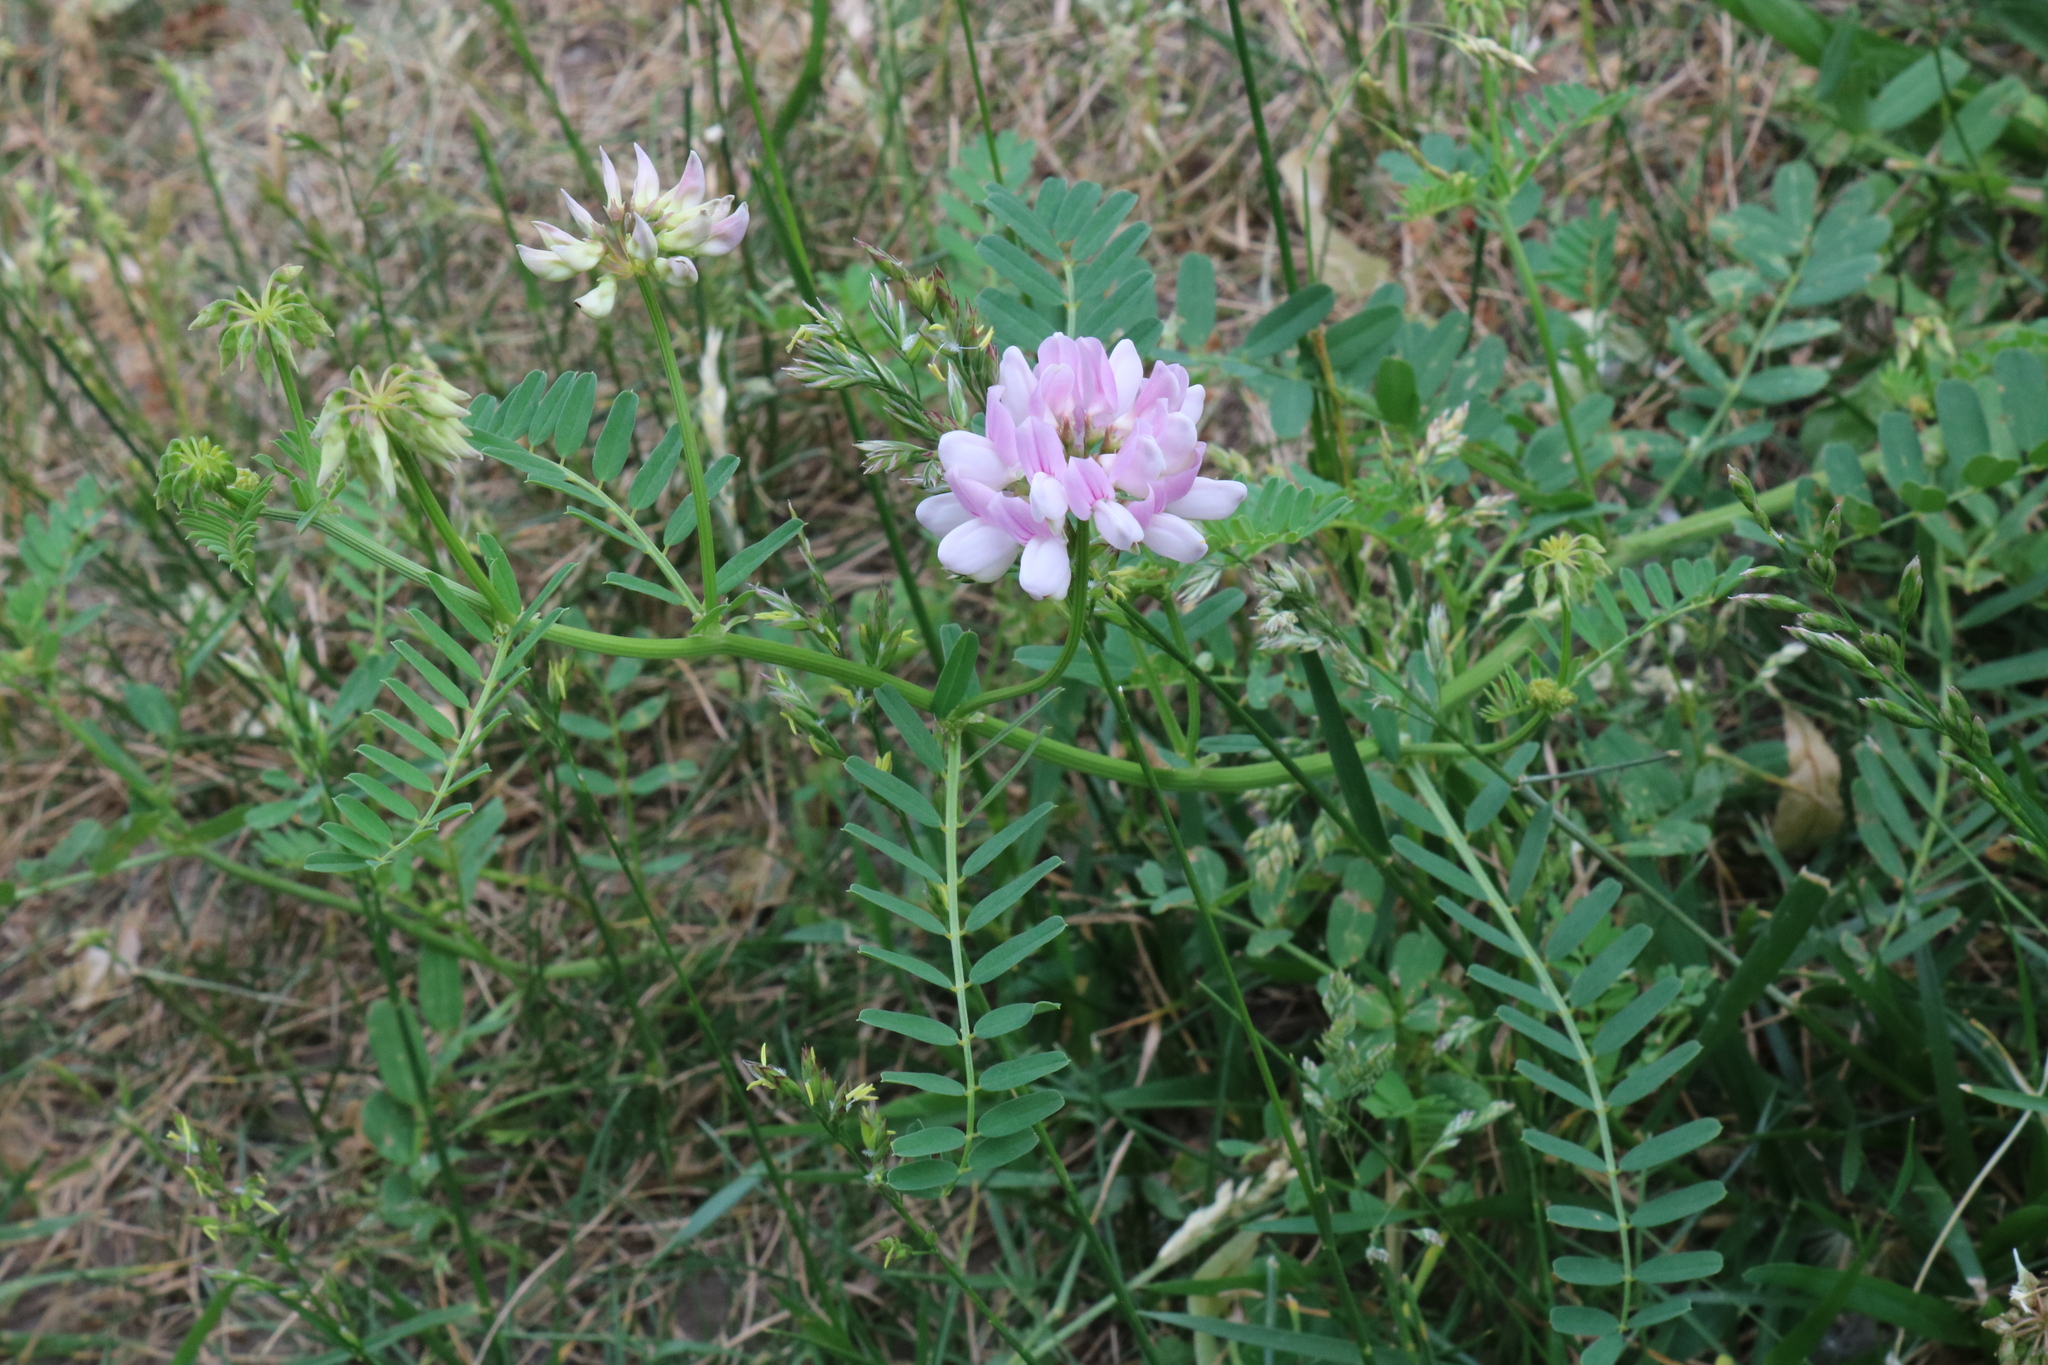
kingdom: Plantae
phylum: Tracheophyta
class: Magnoliopsida
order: Fabales
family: Fabaceae
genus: Coronilla
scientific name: Coronilla varia
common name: Crownvetch
